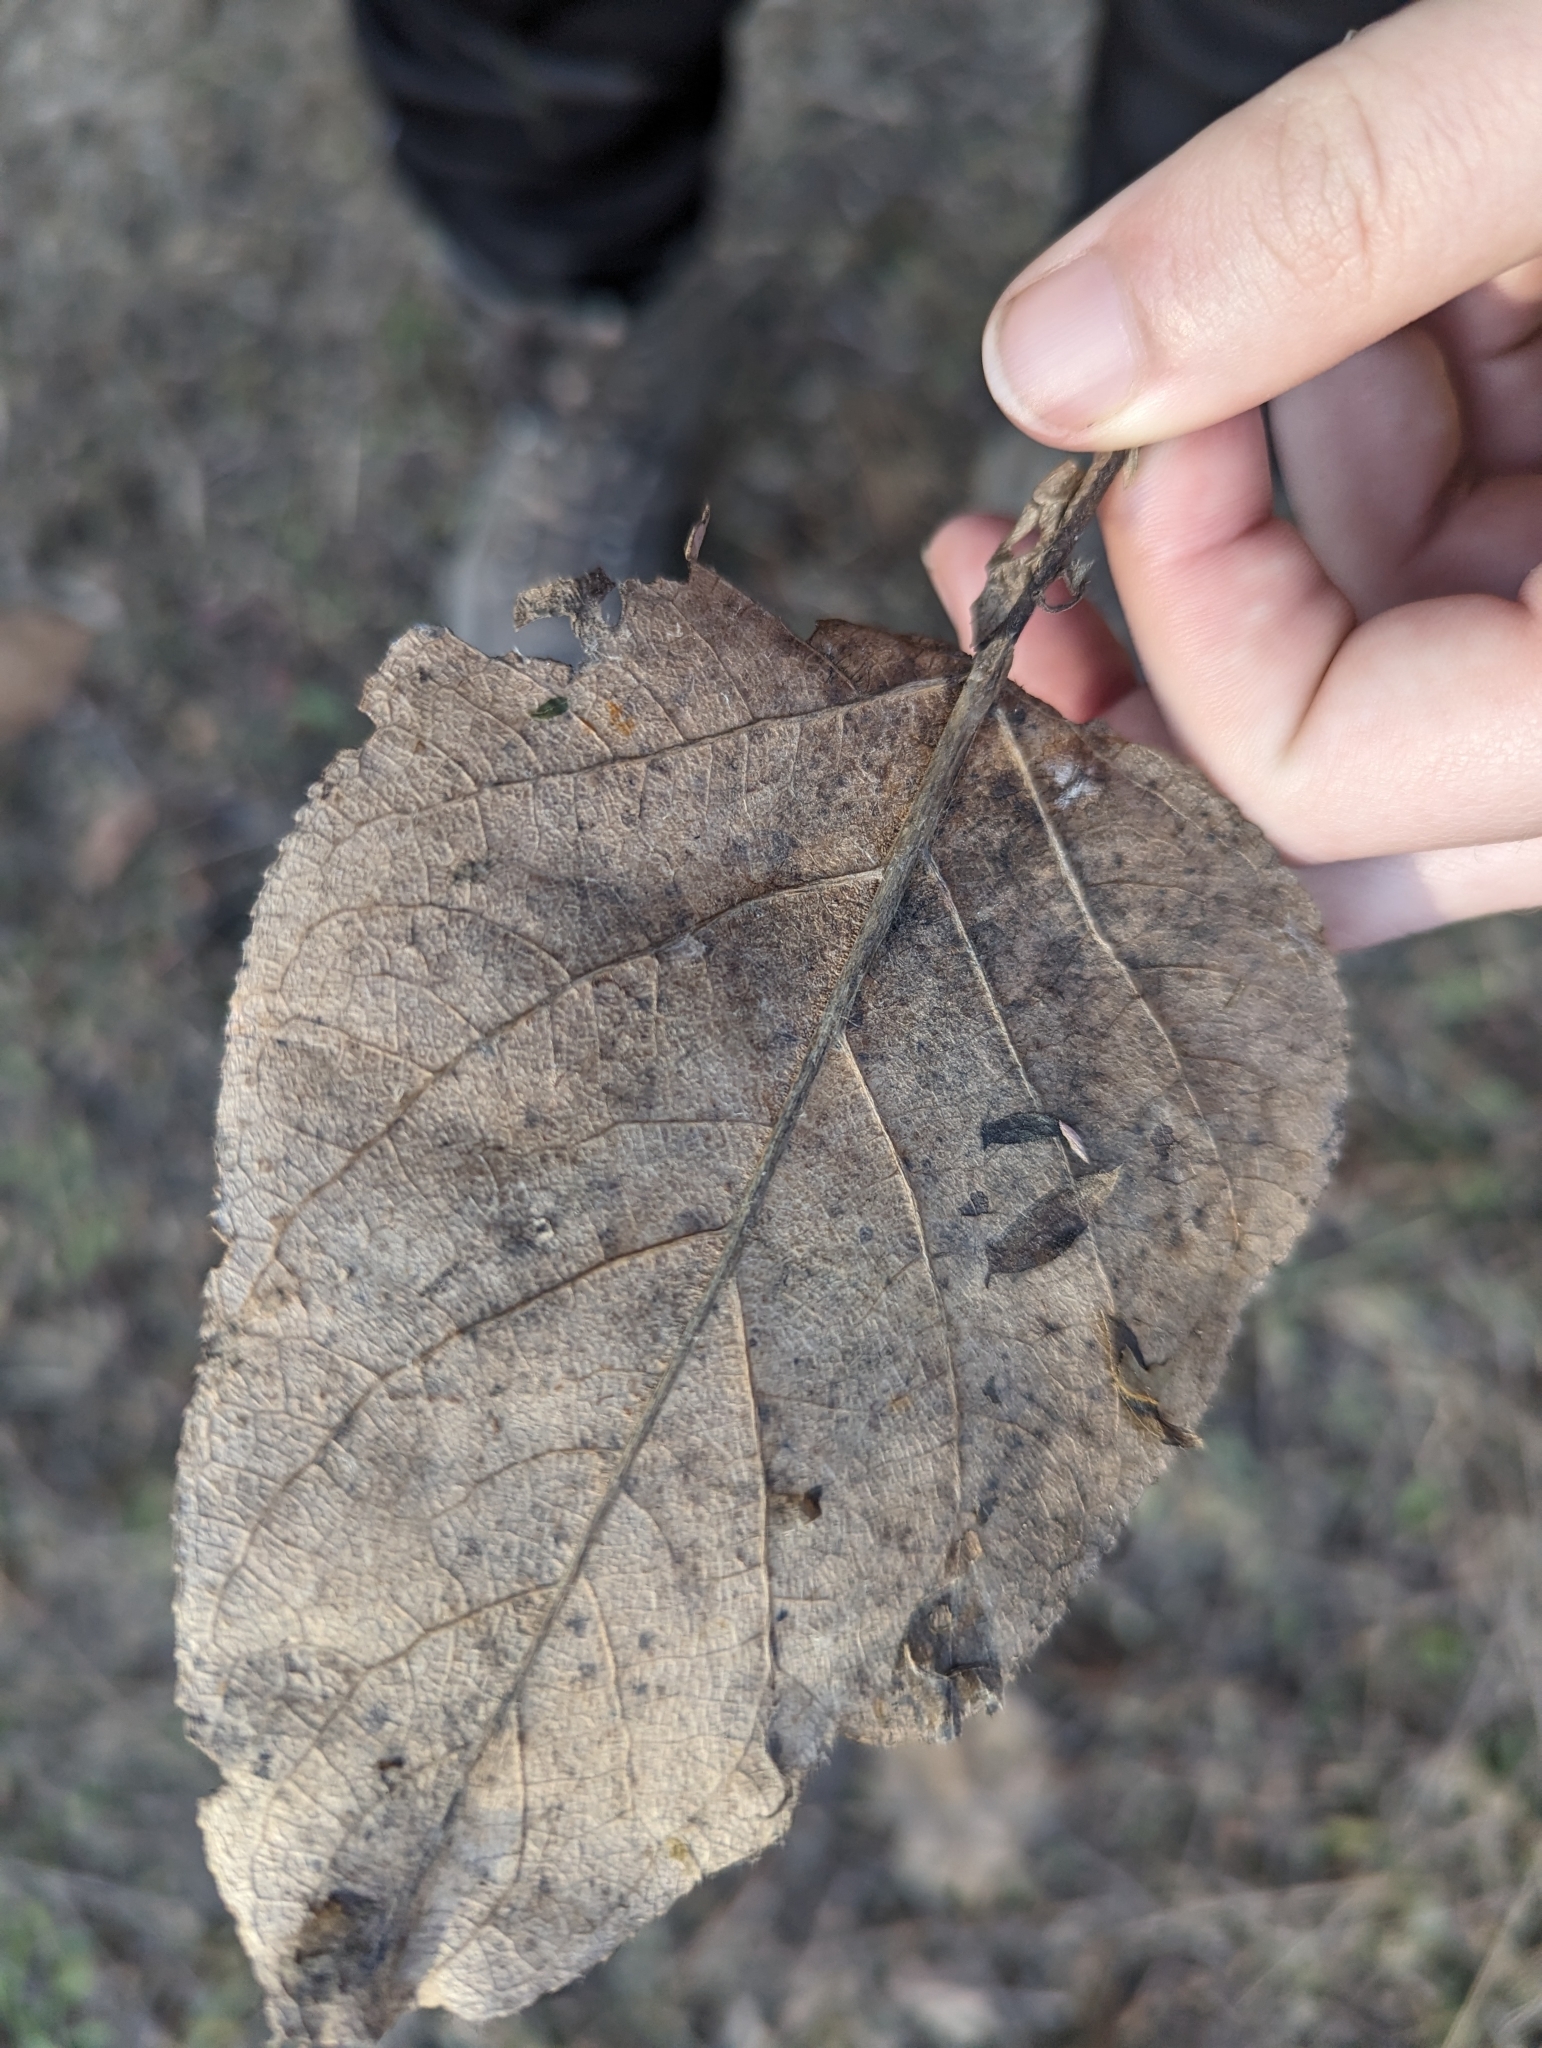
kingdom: Plantae
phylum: Tracheophyta
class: Magnoliopsida
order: Malpighiales
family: Salicaceae
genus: Populus
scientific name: Populus balsamifera
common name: Balsam poplar
